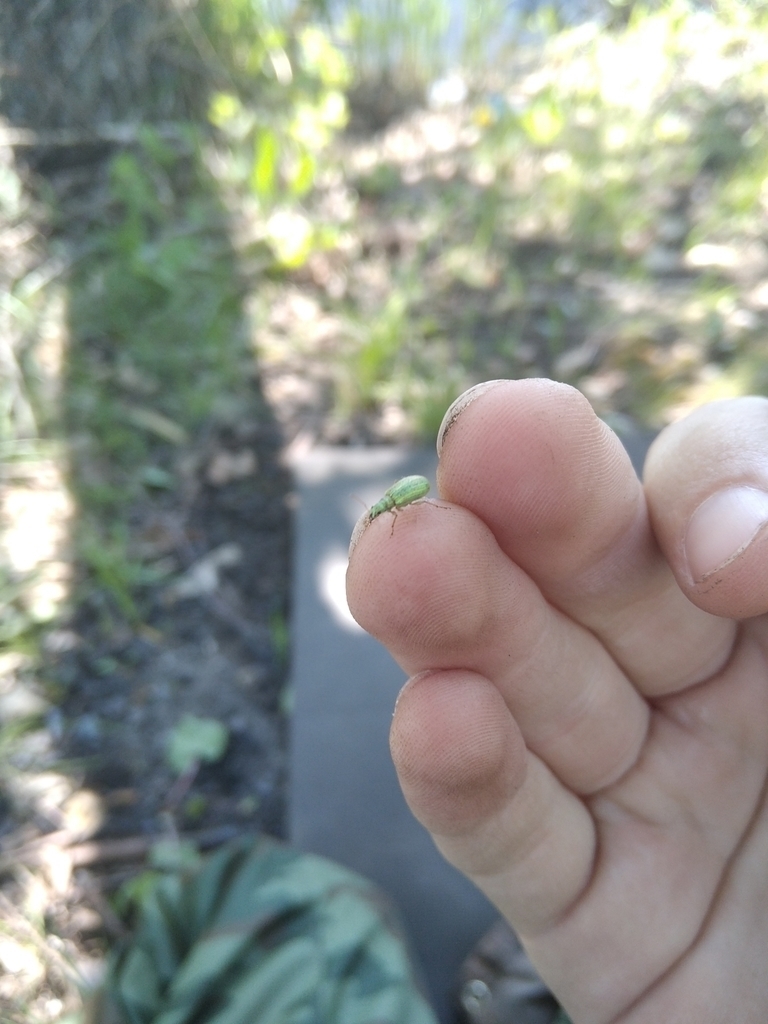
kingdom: Animalia
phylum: Arthropoda
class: Insecta
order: Coleoptera
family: Curculionidae
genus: Eustolus
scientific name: Eustolus
